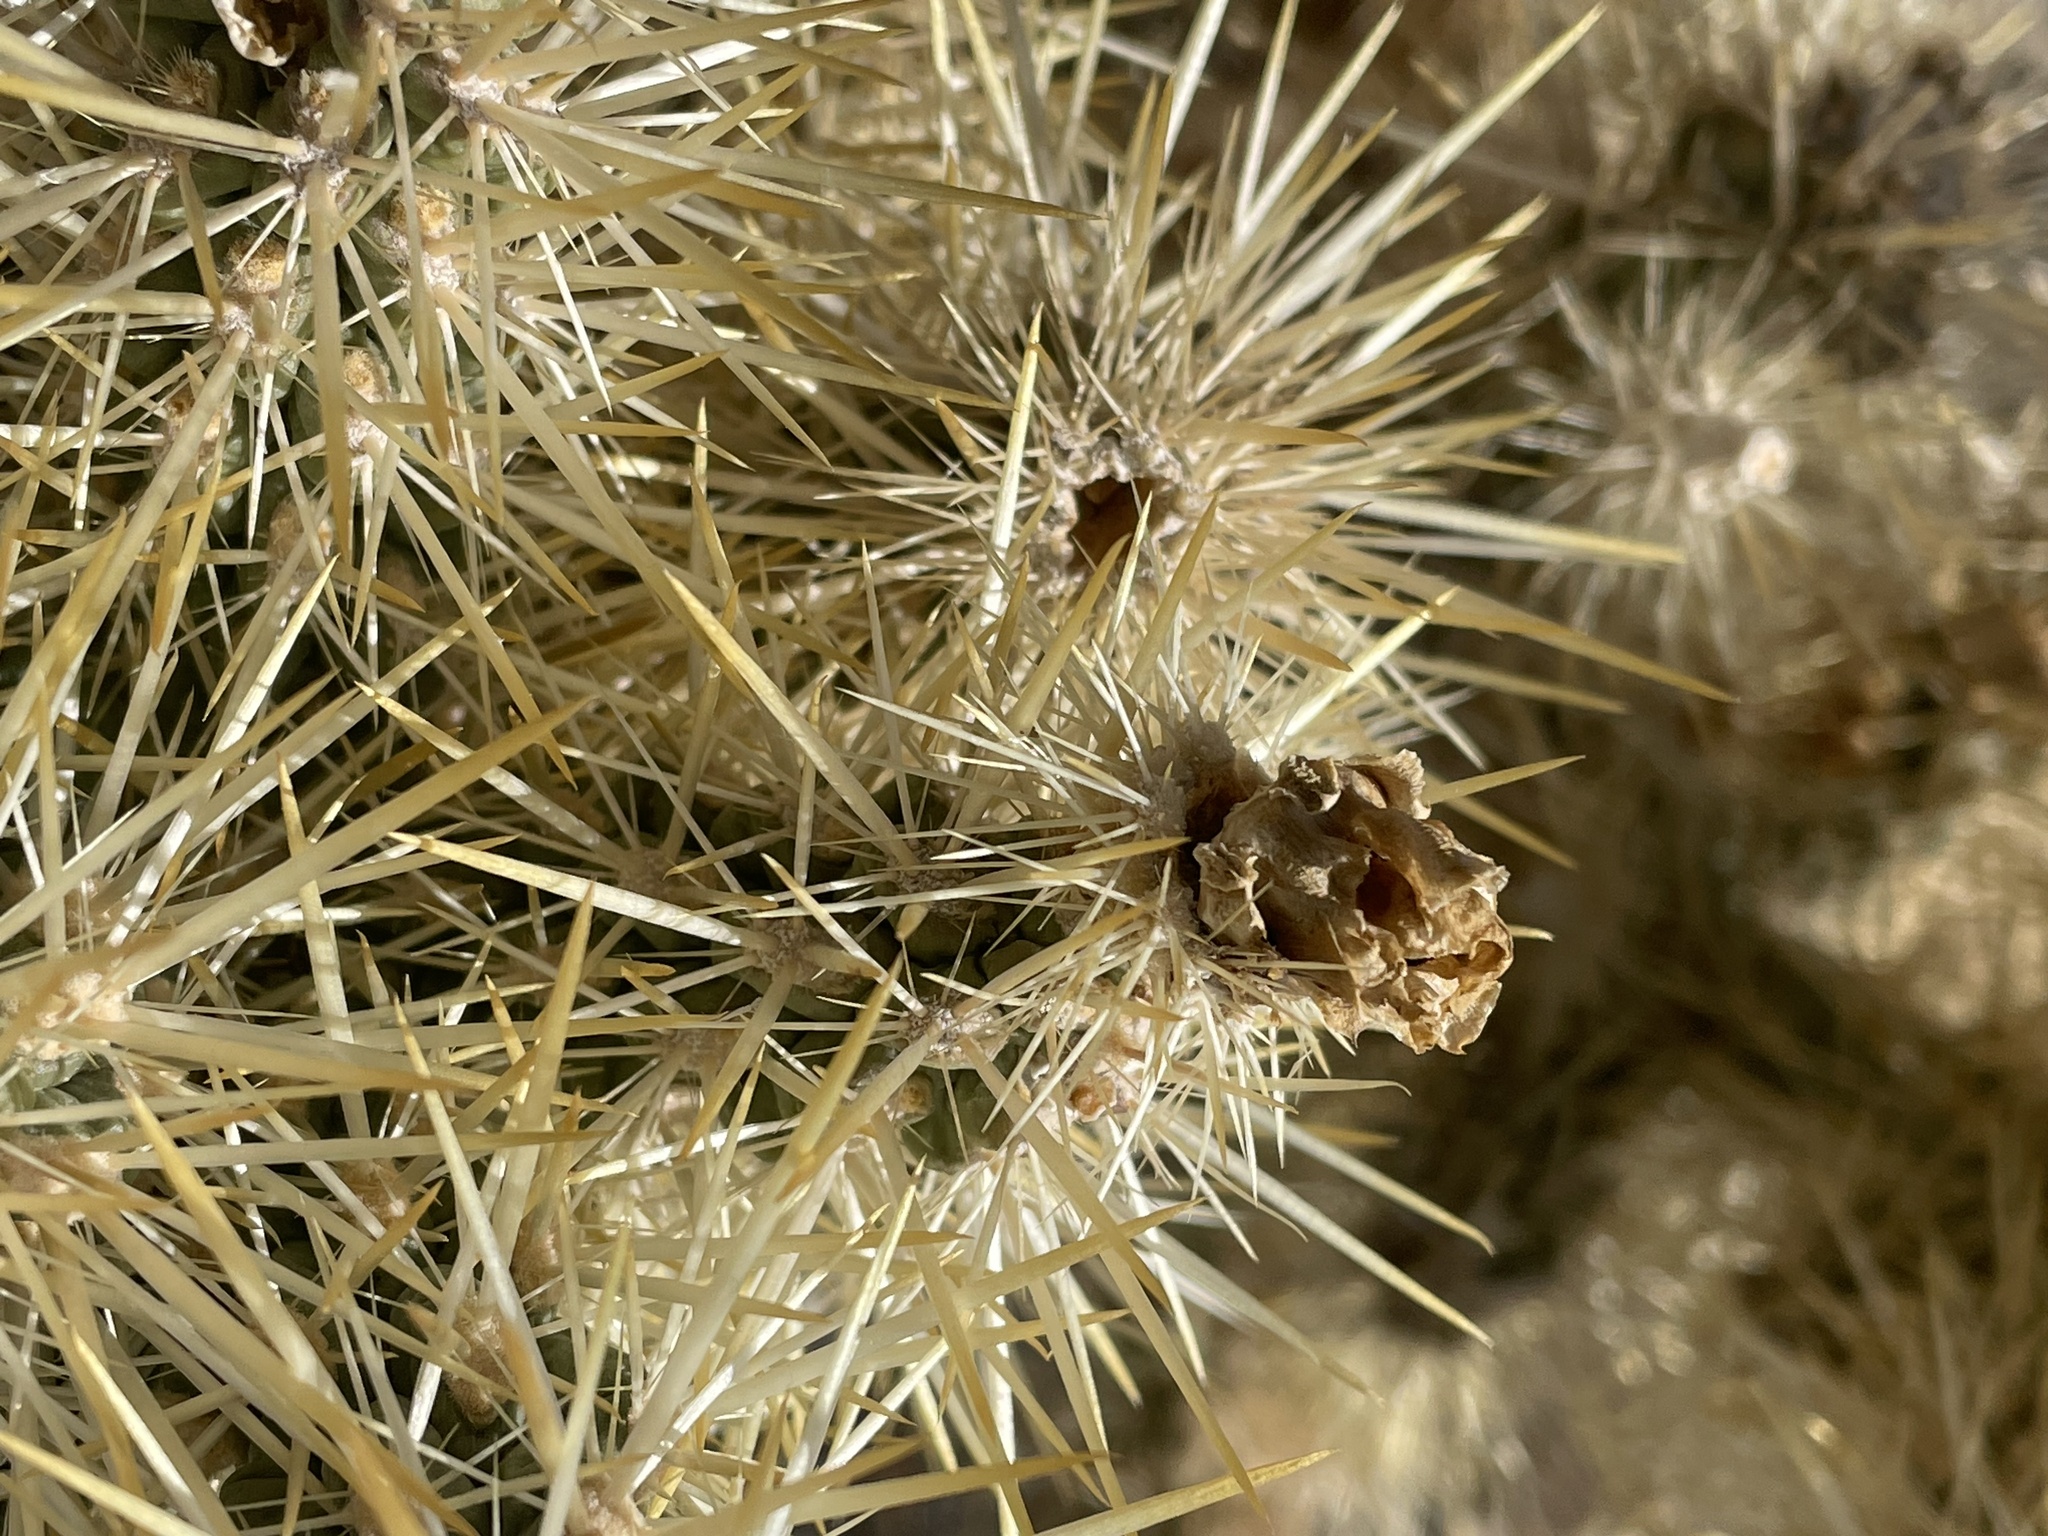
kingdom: Plantae
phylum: Tracheophyta
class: Magnoliopsida
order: Caryophyllales
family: Cactaceae
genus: Cylindropuntia
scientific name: Cylindropuntia echinocarpa
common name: Ground cholla
